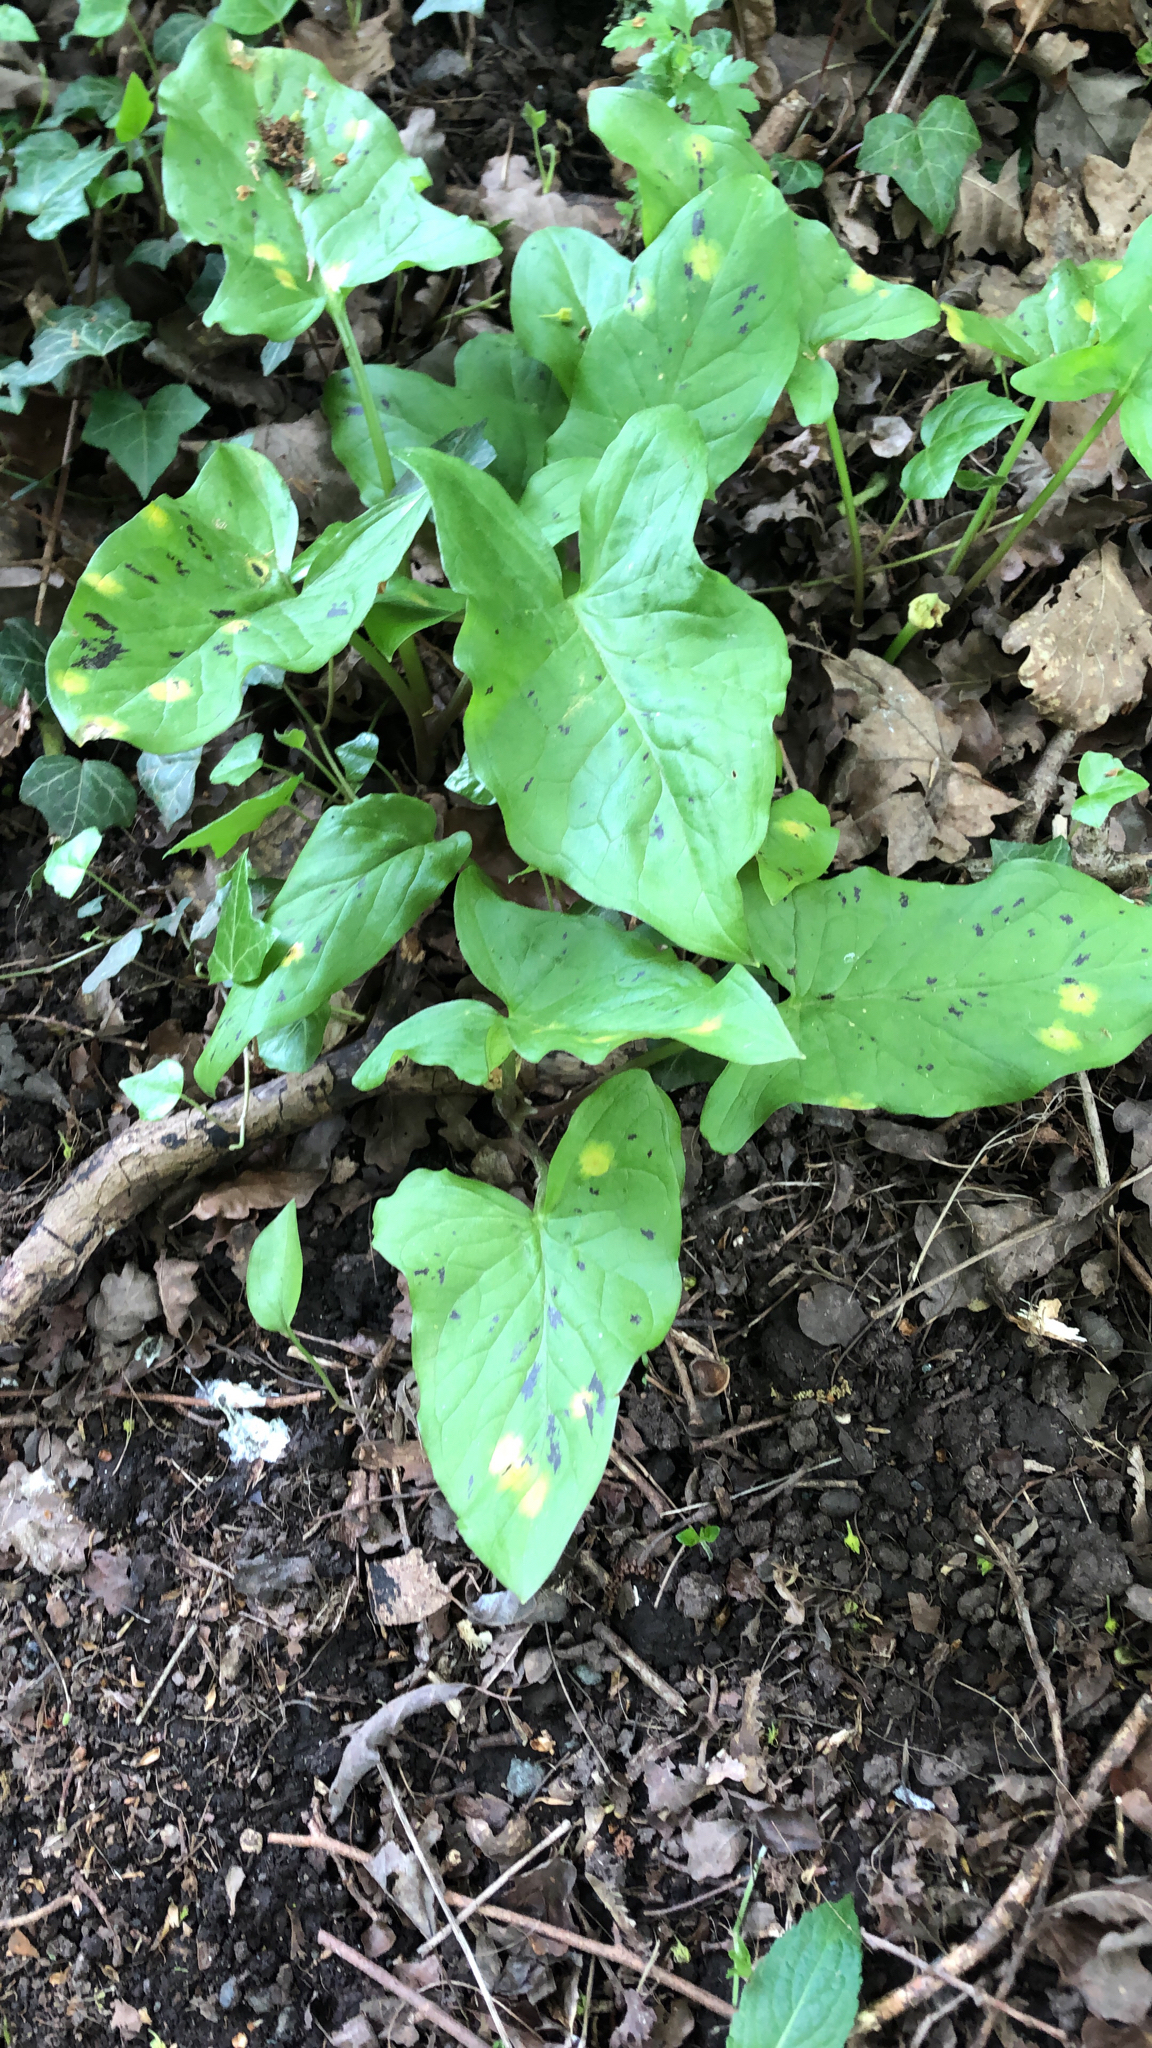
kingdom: Plantae
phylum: Tracheophyta
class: Liliopsida
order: Alismatales
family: Araceae
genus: Arum
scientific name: Arum maculatum
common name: Lords-and-ladies
